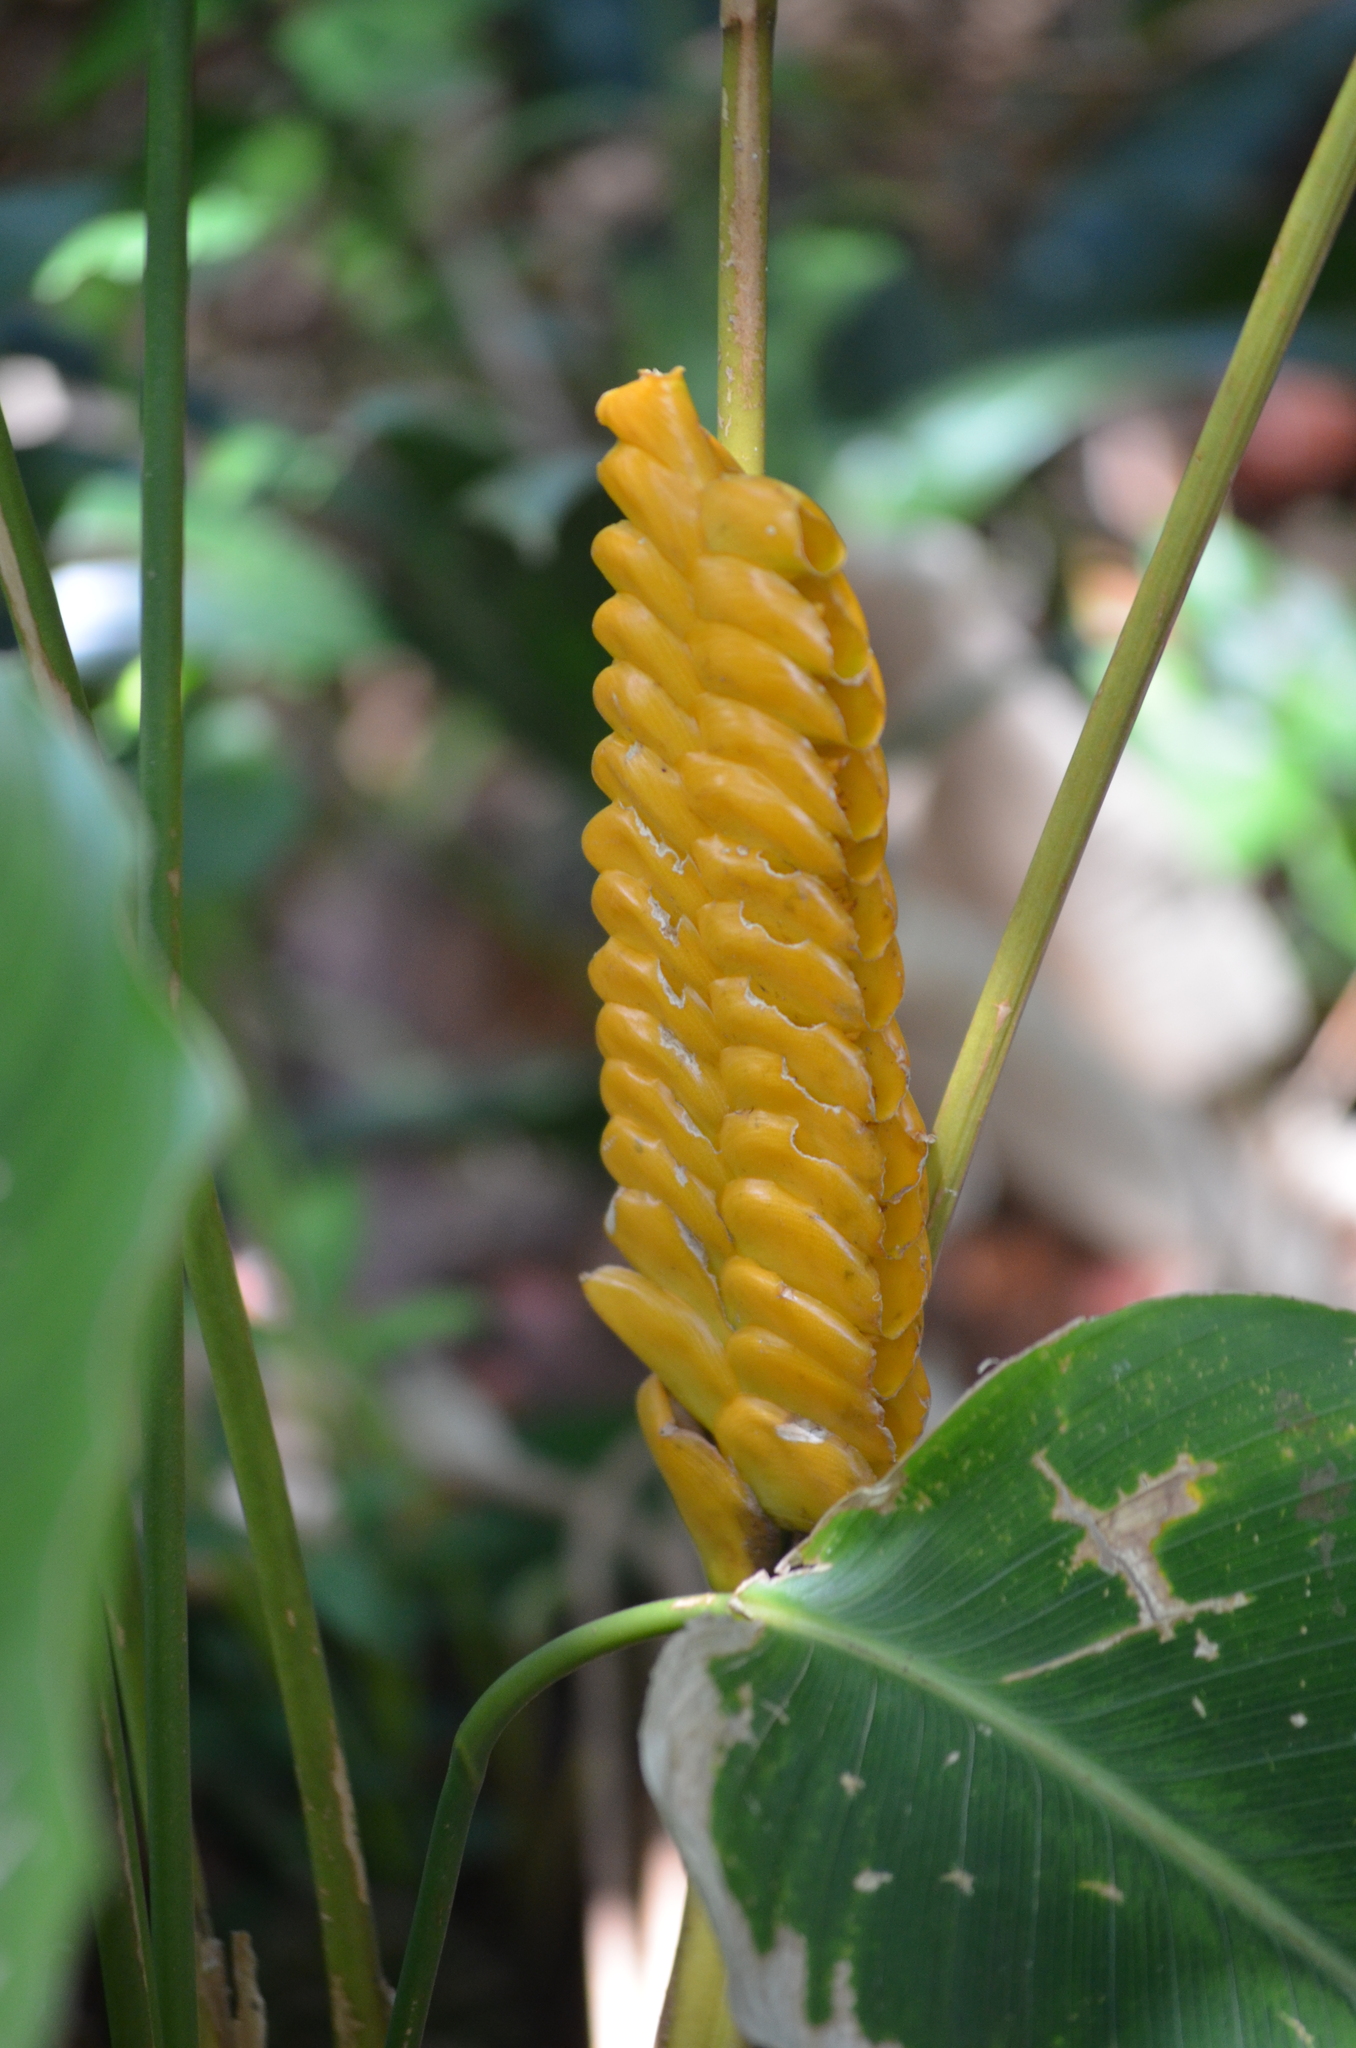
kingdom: Plantae
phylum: Tracheophyta
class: Liliopsida
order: Zingiberales
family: Marantaceae
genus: Calathea
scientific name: Calathea crotalifera
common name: Rattlesnake plant
